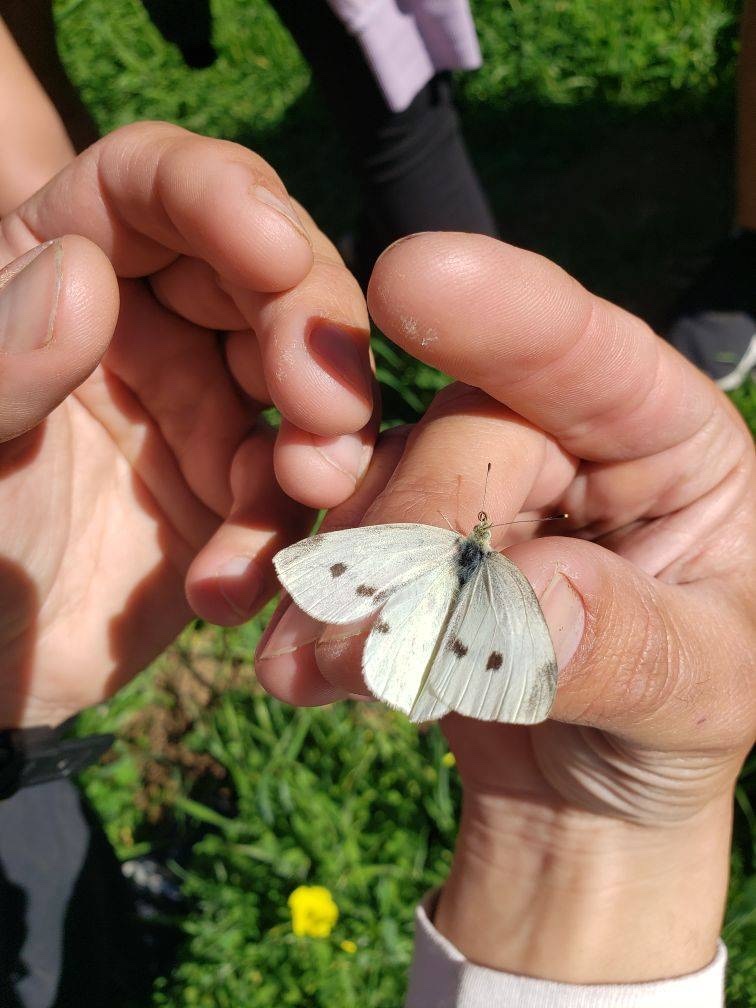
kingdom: Animalia
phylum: Arthropoda
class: Insecta
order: Lepidoptera
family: Pieridae
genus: Pieris
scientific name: Pieris rapae
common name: Small white
